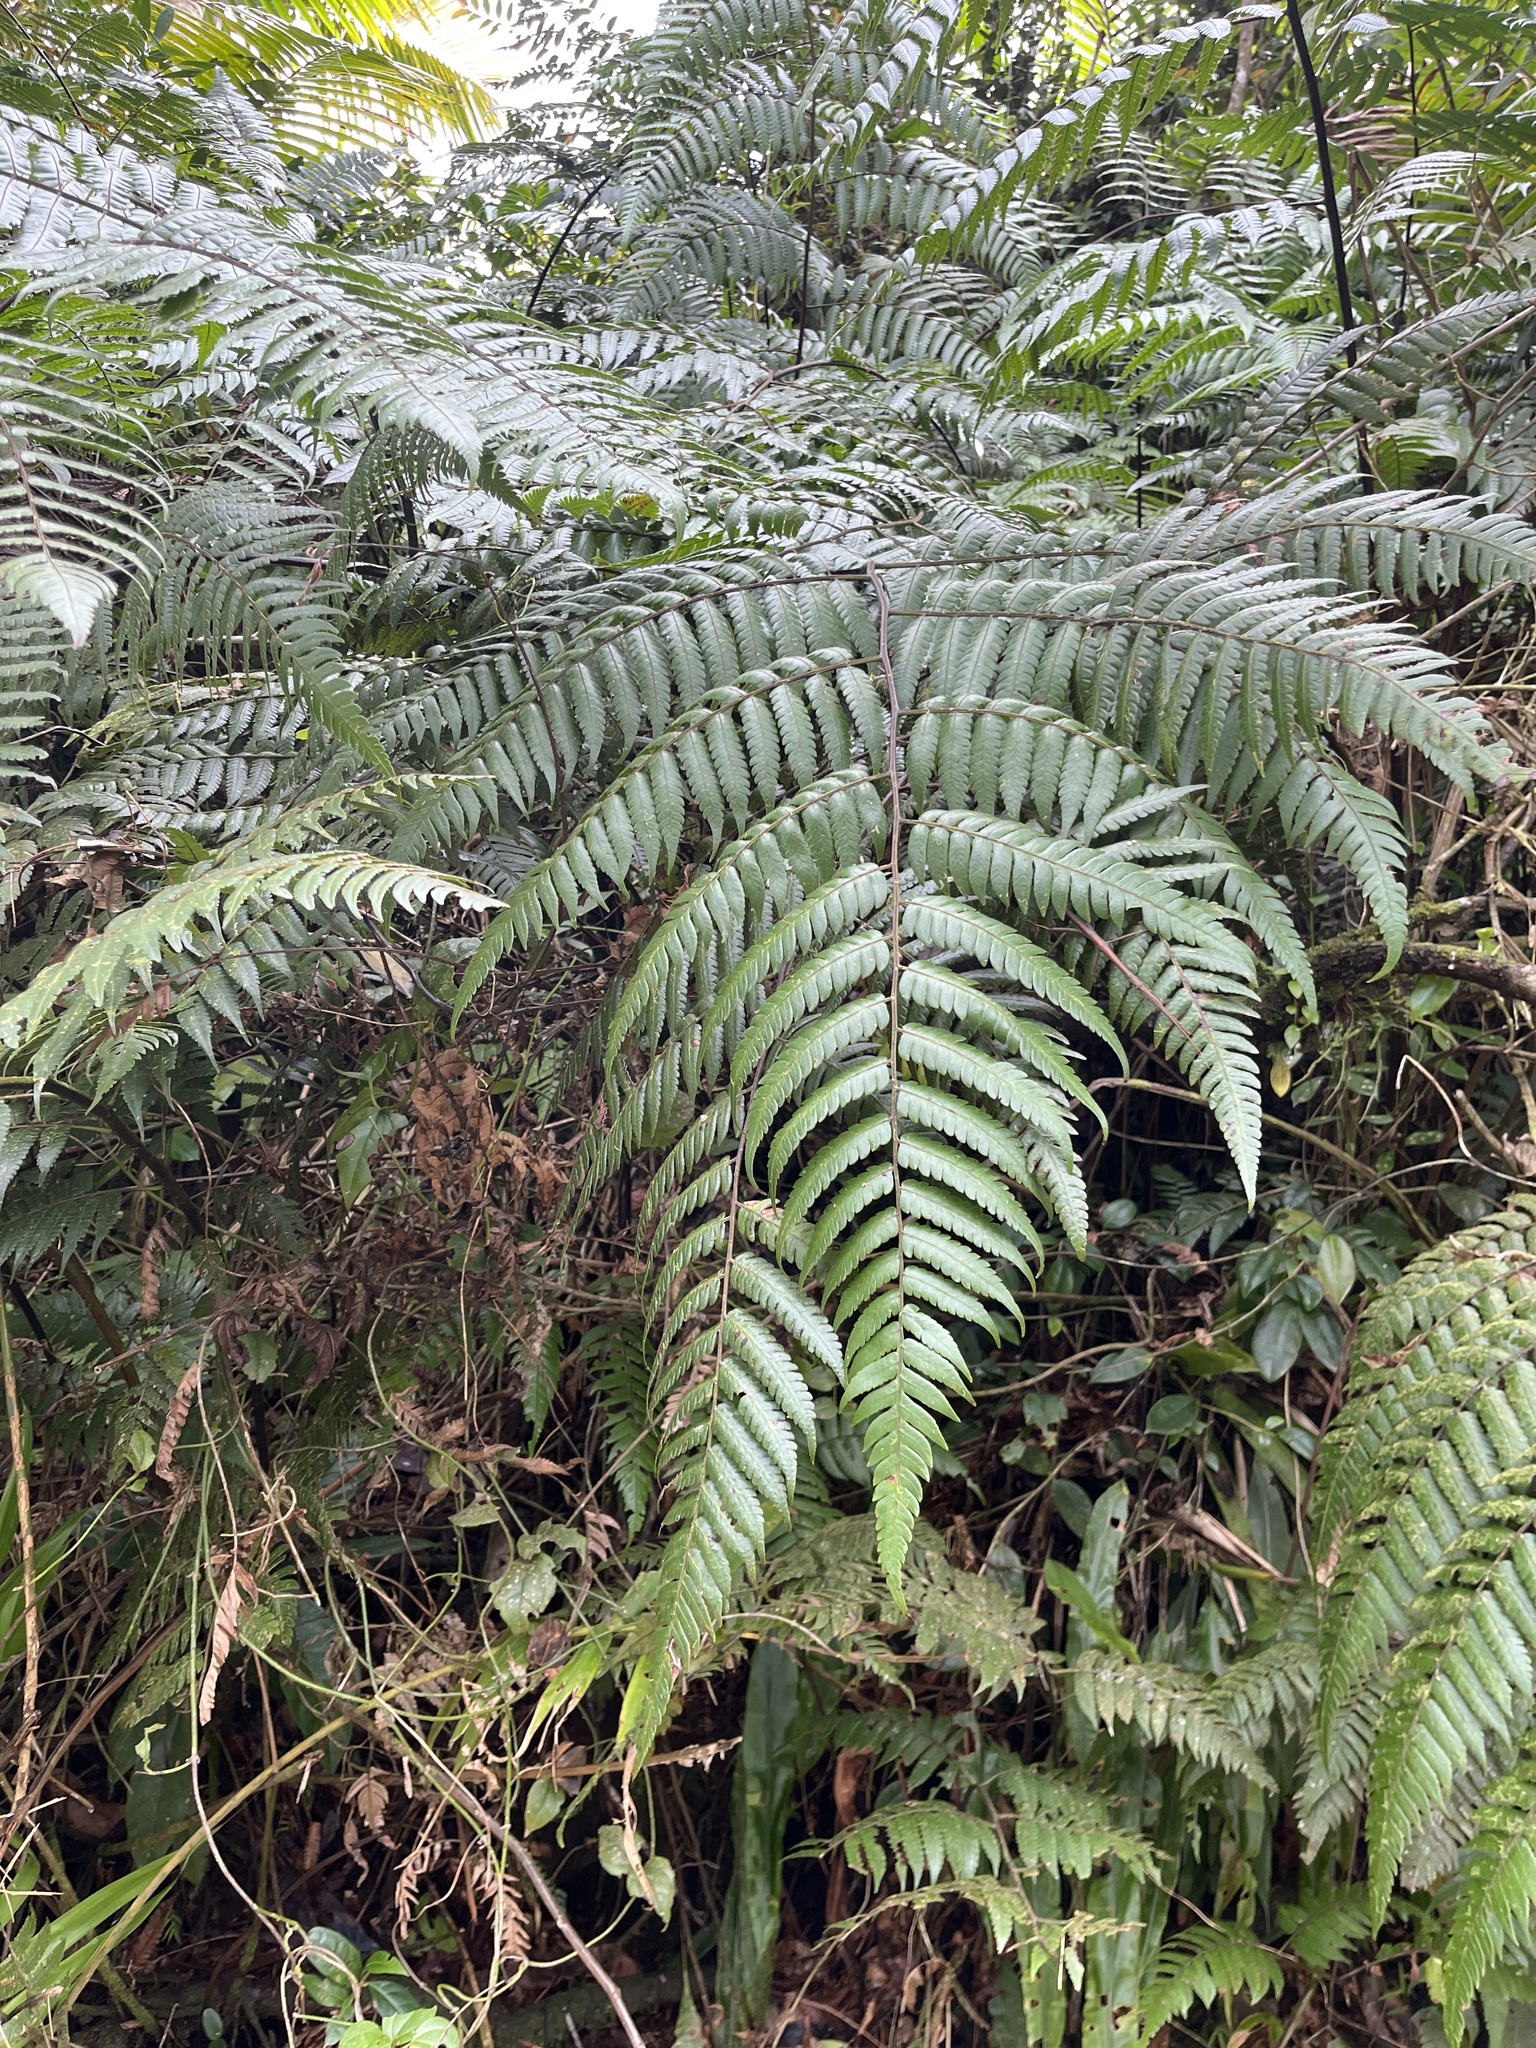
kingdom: Plantae
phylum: Tracheophyta
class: Polypodiopsida
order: Cyatheales
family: Cyatheaceae
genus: Cyathea
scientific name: Cyathea borinquena
